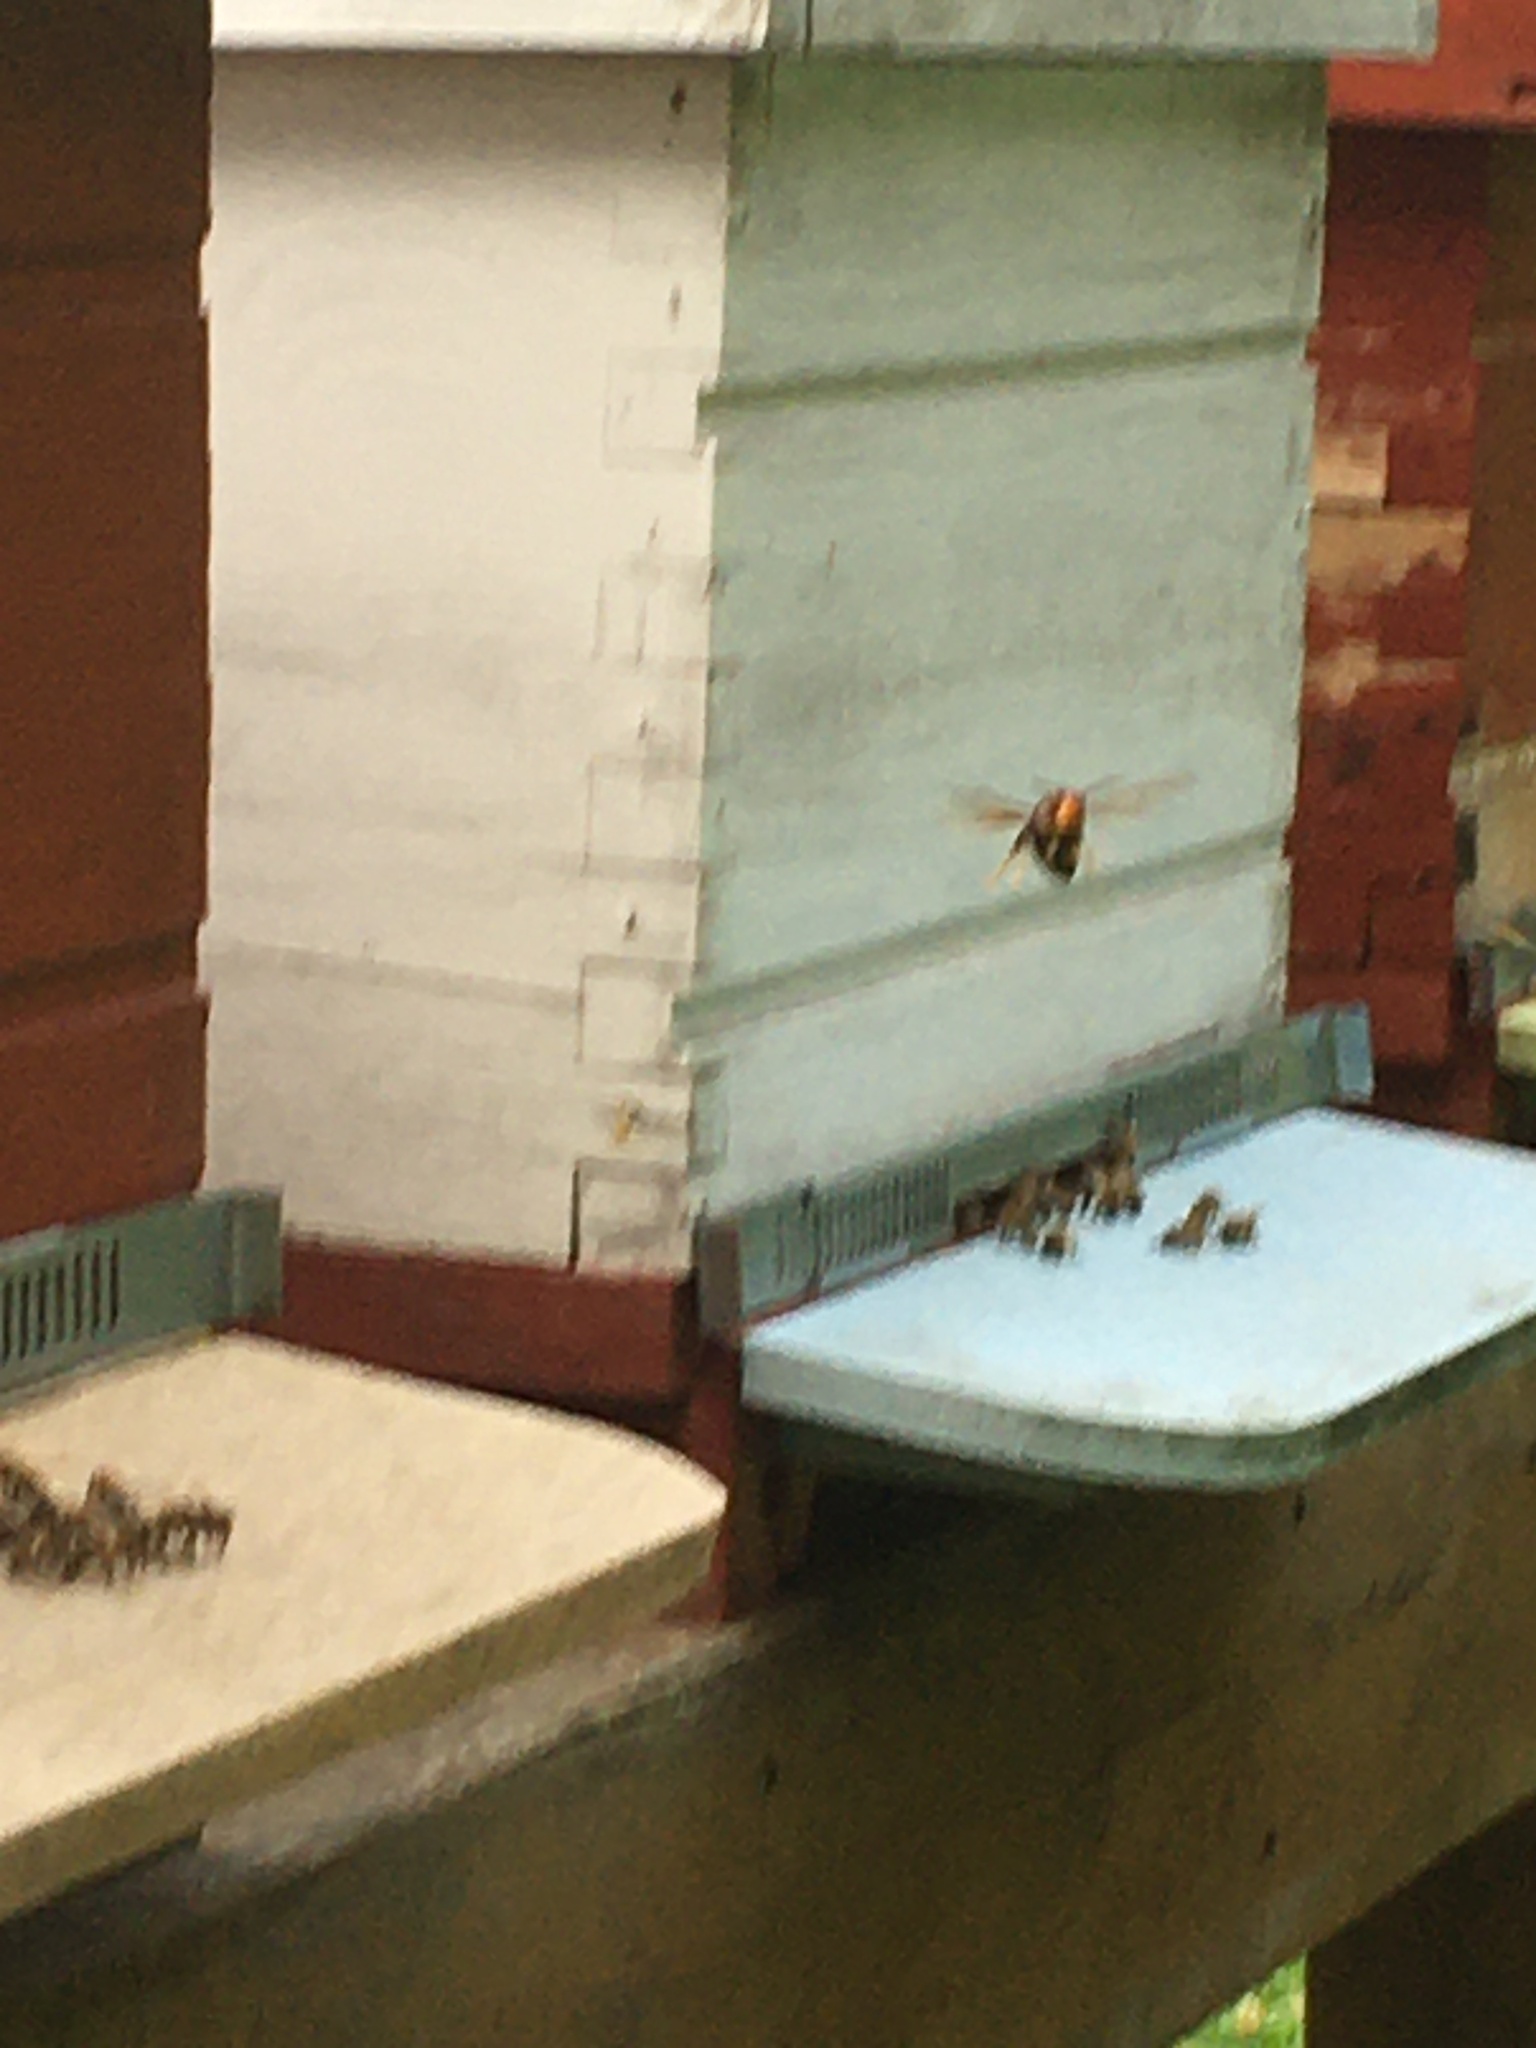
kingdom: Animalia
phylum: Arthropoda
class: Insecta
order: Hymenoptera
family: Vespidae
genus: Vespa
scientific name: Vespa velutina
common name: Asian hornet
